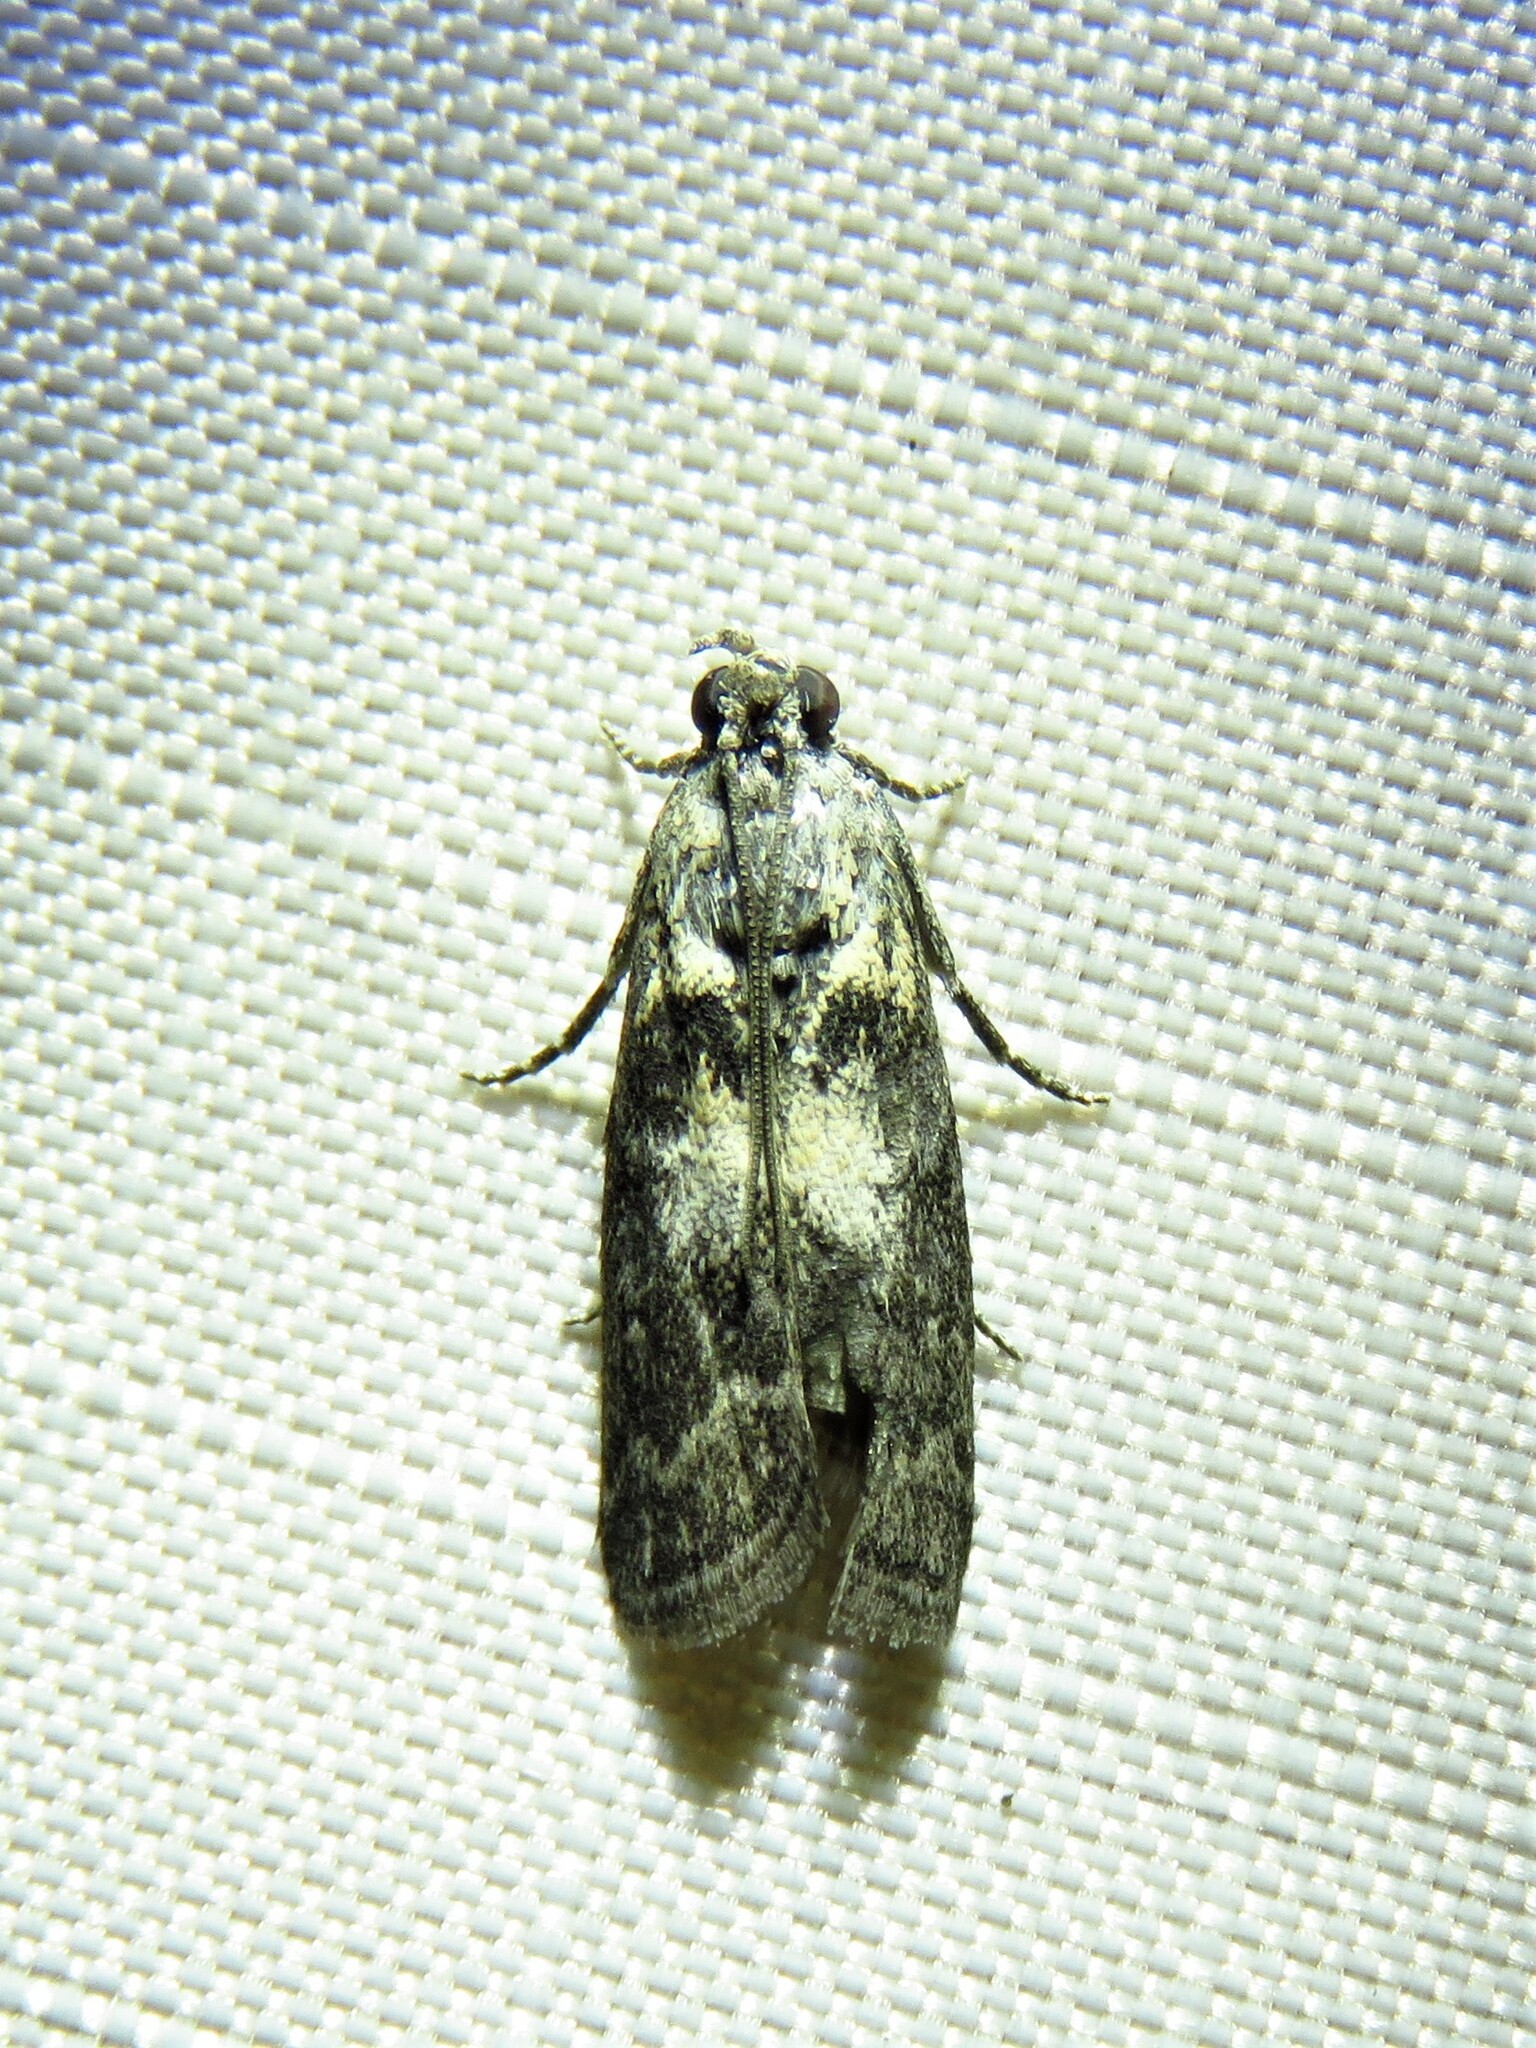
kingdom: Animalia
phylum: Arthropoda
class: Insecta
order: Lepidoptera
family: Pyralidae
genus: Tacoma
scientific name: Tacoma feriella
